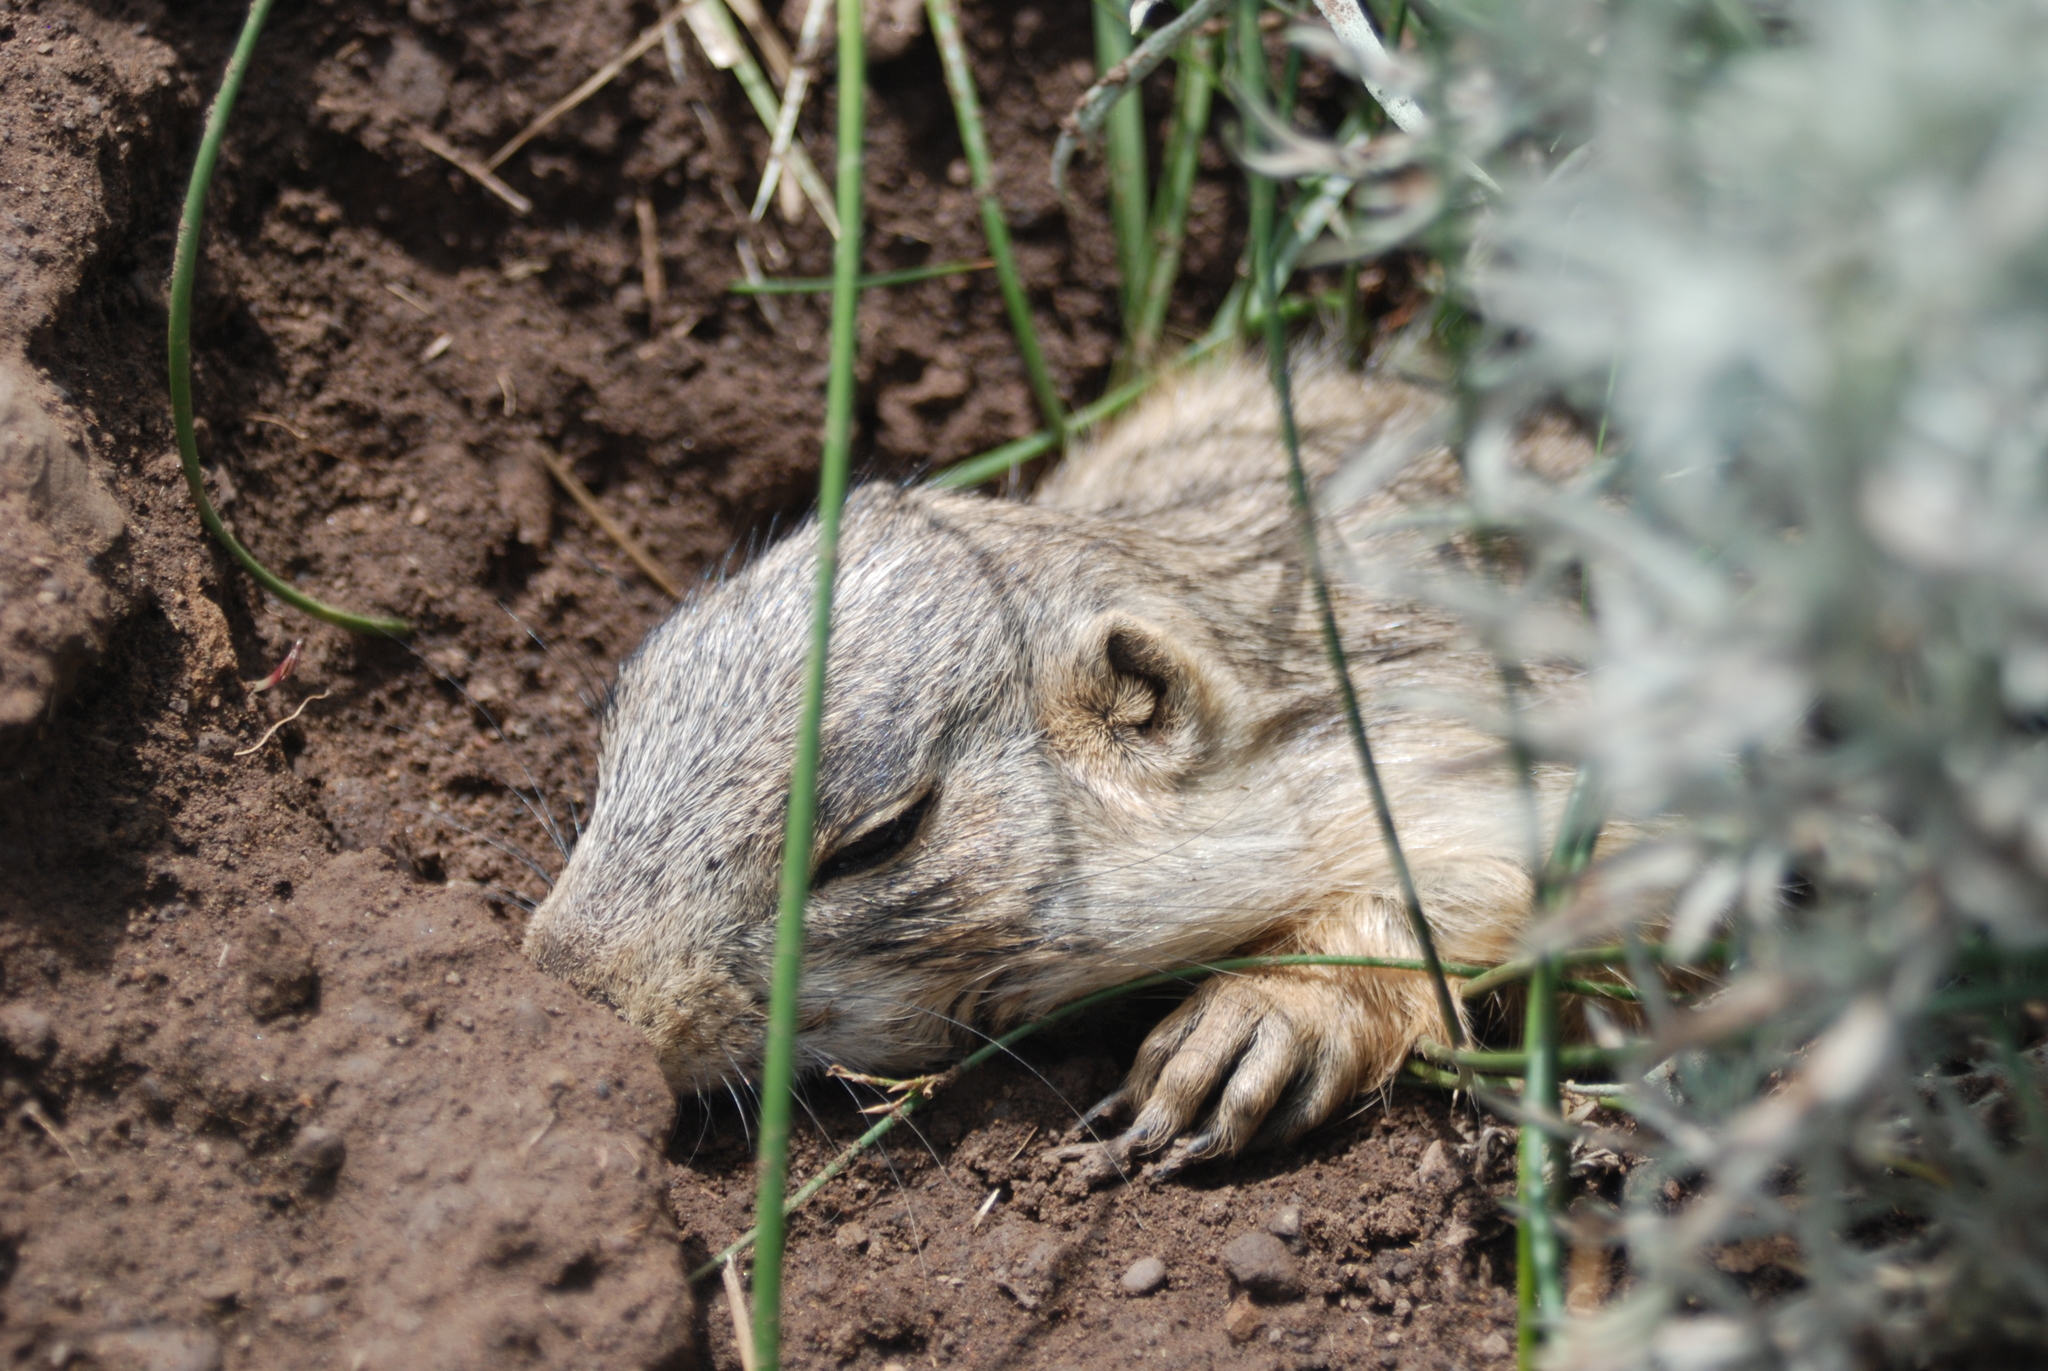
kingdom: Animalia
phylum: Chordata
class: Mammalia
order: Rodentia
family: Sciuridae
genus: Cynomys
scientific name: Cynomys gunnisoni
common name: Gunnison's prairie dog
